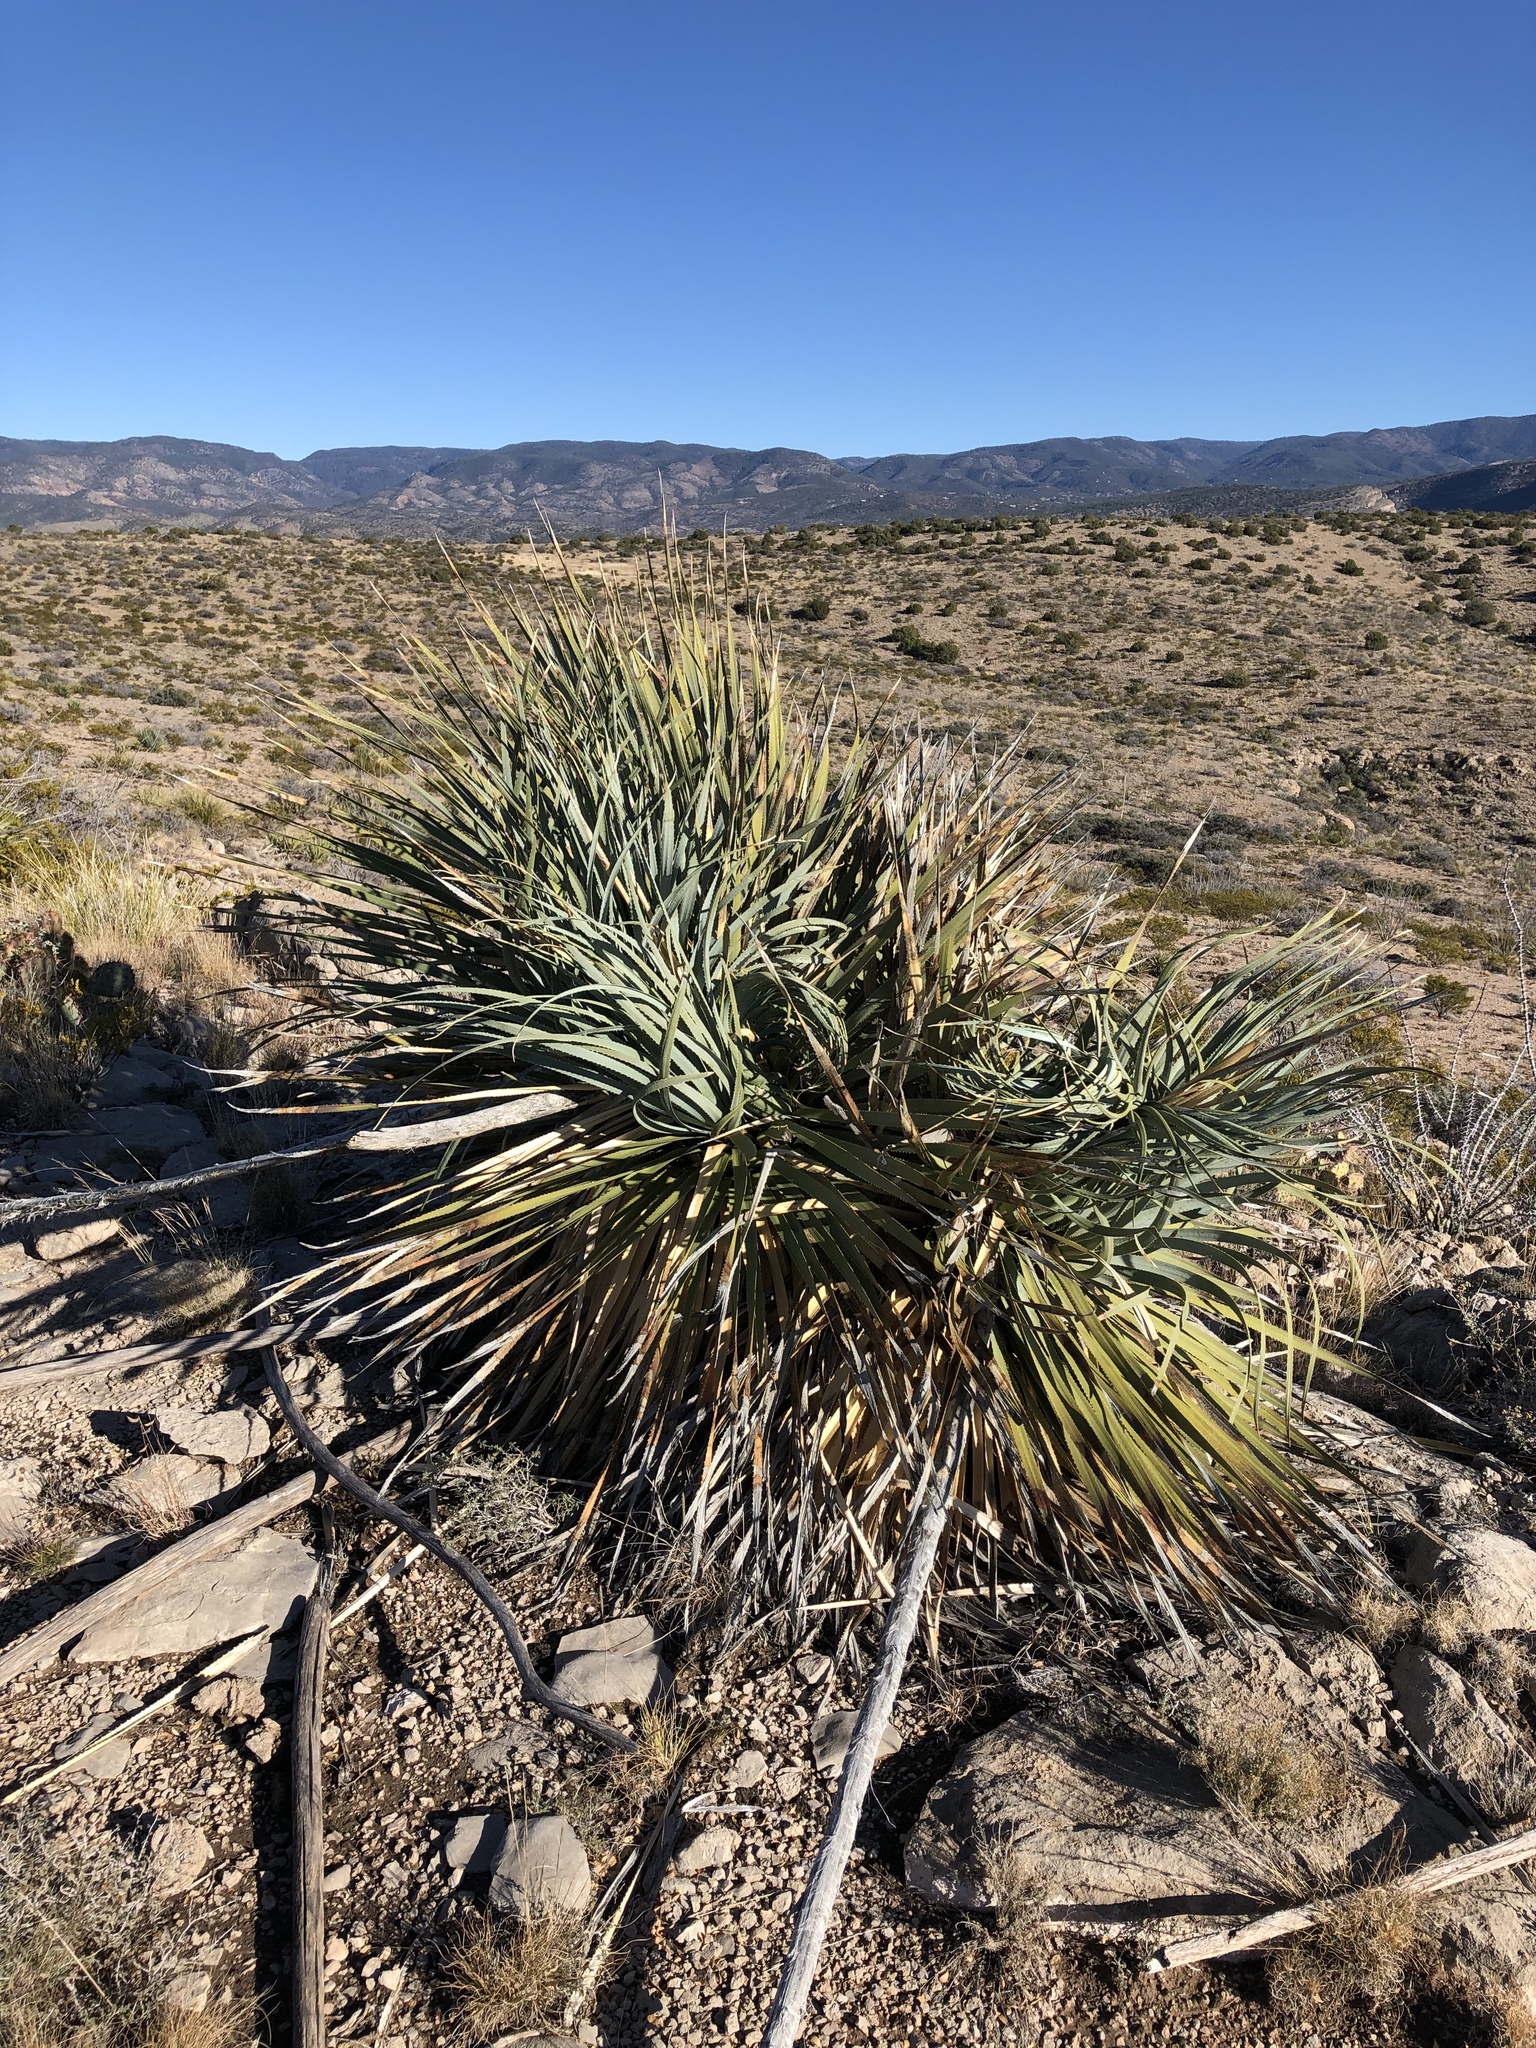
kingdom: Plantae
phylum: Tracheophyta
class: Liliopsida
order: Asparagales
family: Asparagaceae
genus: Dasylirion
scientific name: Dasylirion wheeleri
